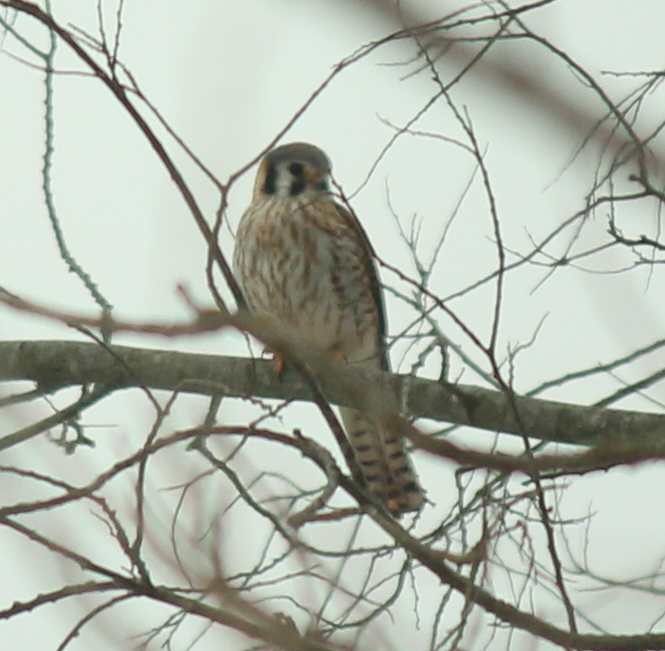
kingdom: Animalia
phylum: Chordata
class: Aves
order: Falconiformes
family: Falconidae
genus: Falco
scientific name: Falco sparverius
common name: American kestrel
